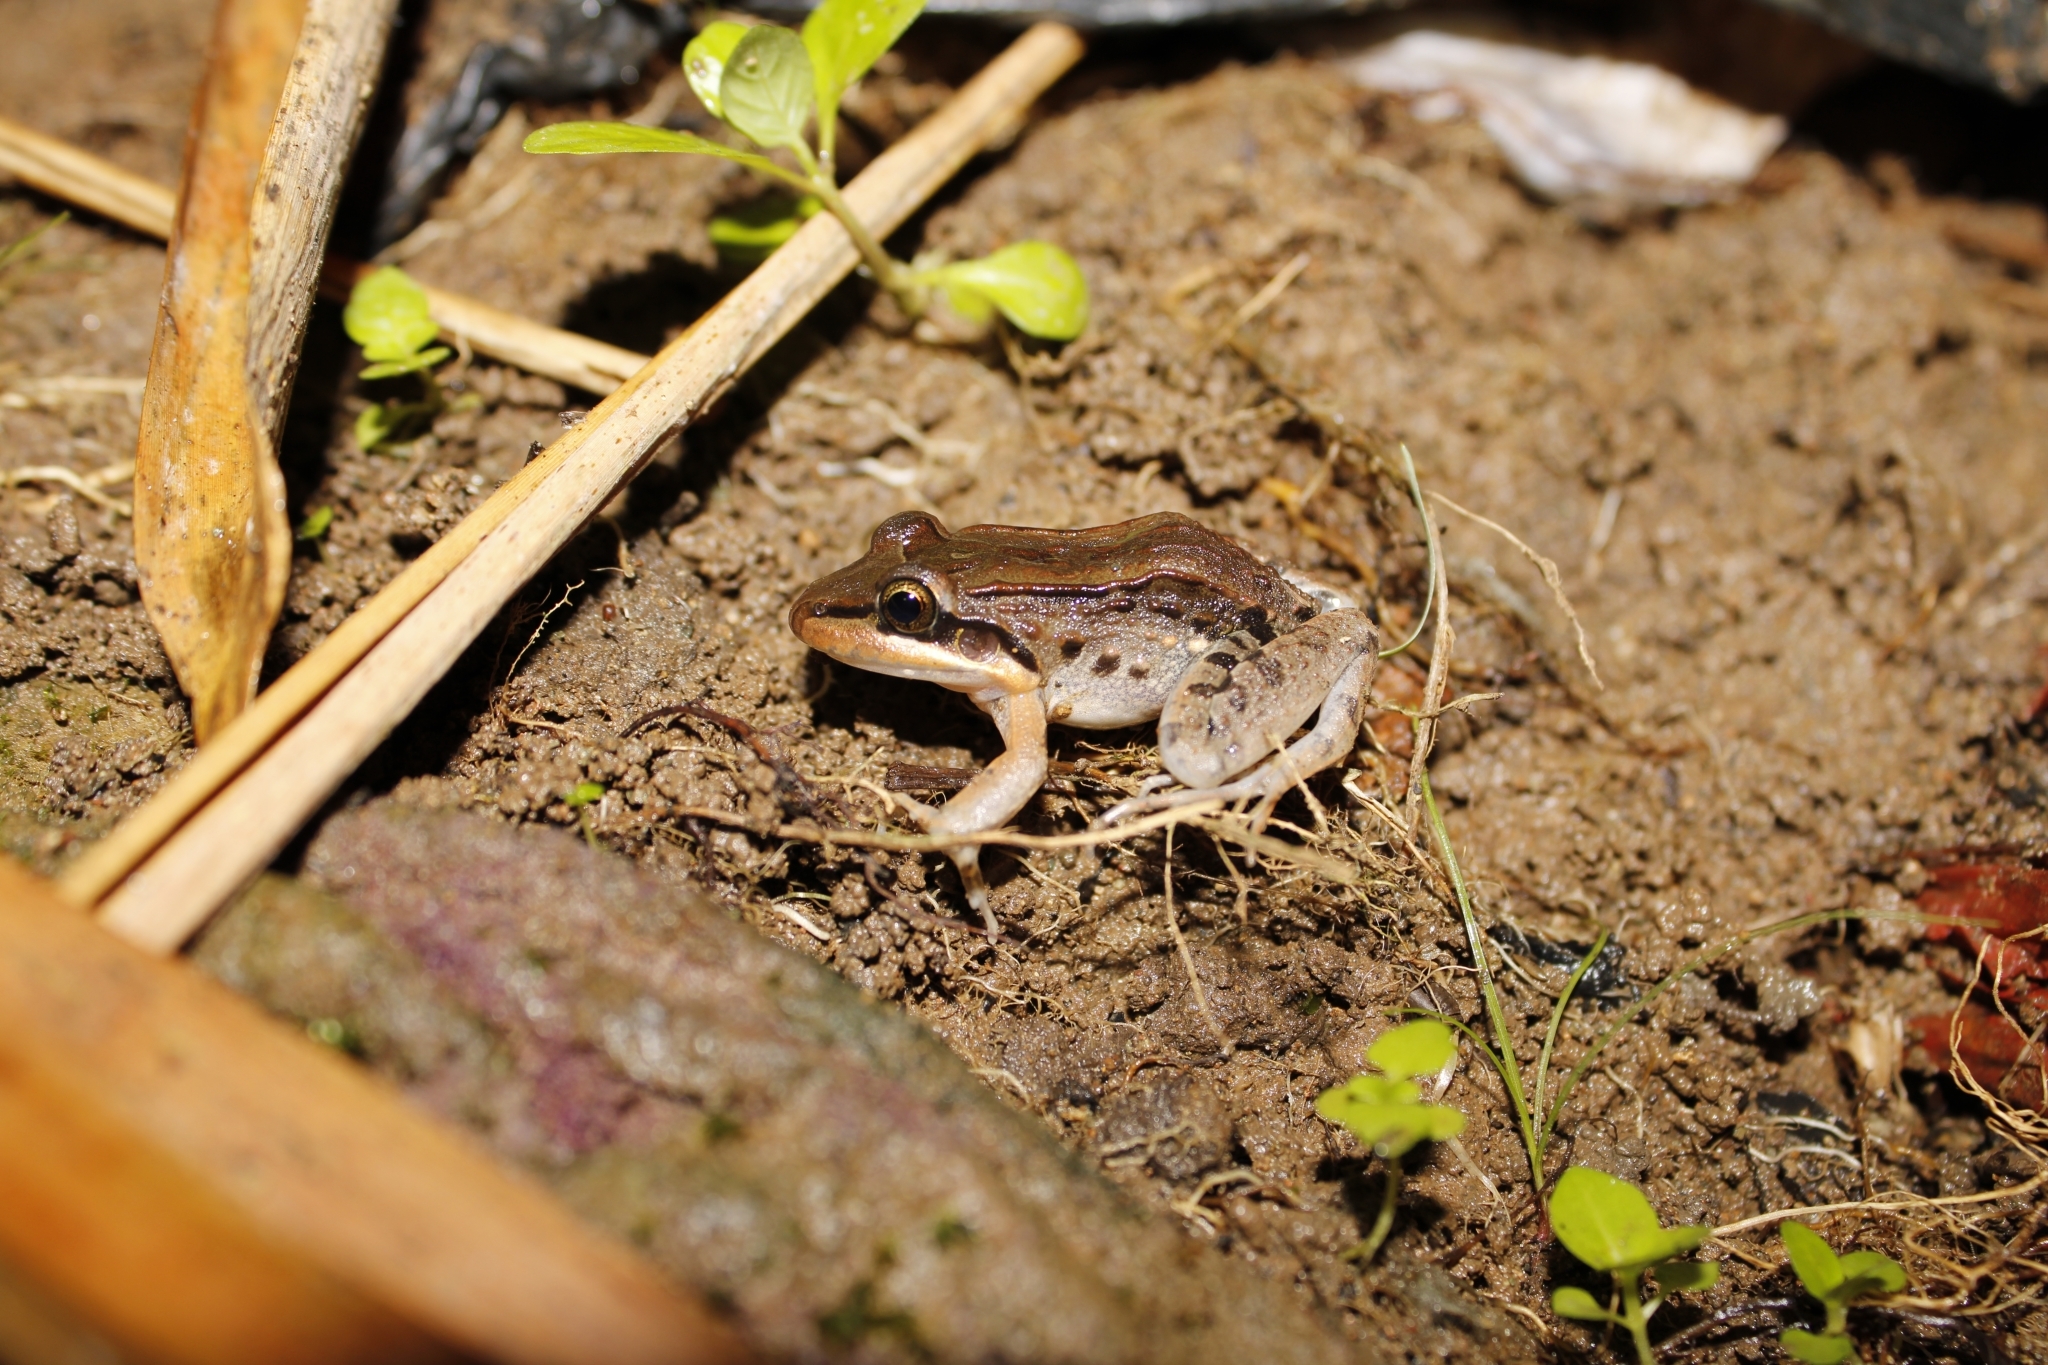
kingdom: Animalia
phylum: Chordata
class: Amphibia
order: Anura
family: Leptodactylidae
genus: Leptodactylus
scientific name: Leptodactylus insularum
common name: San miguel island frog
